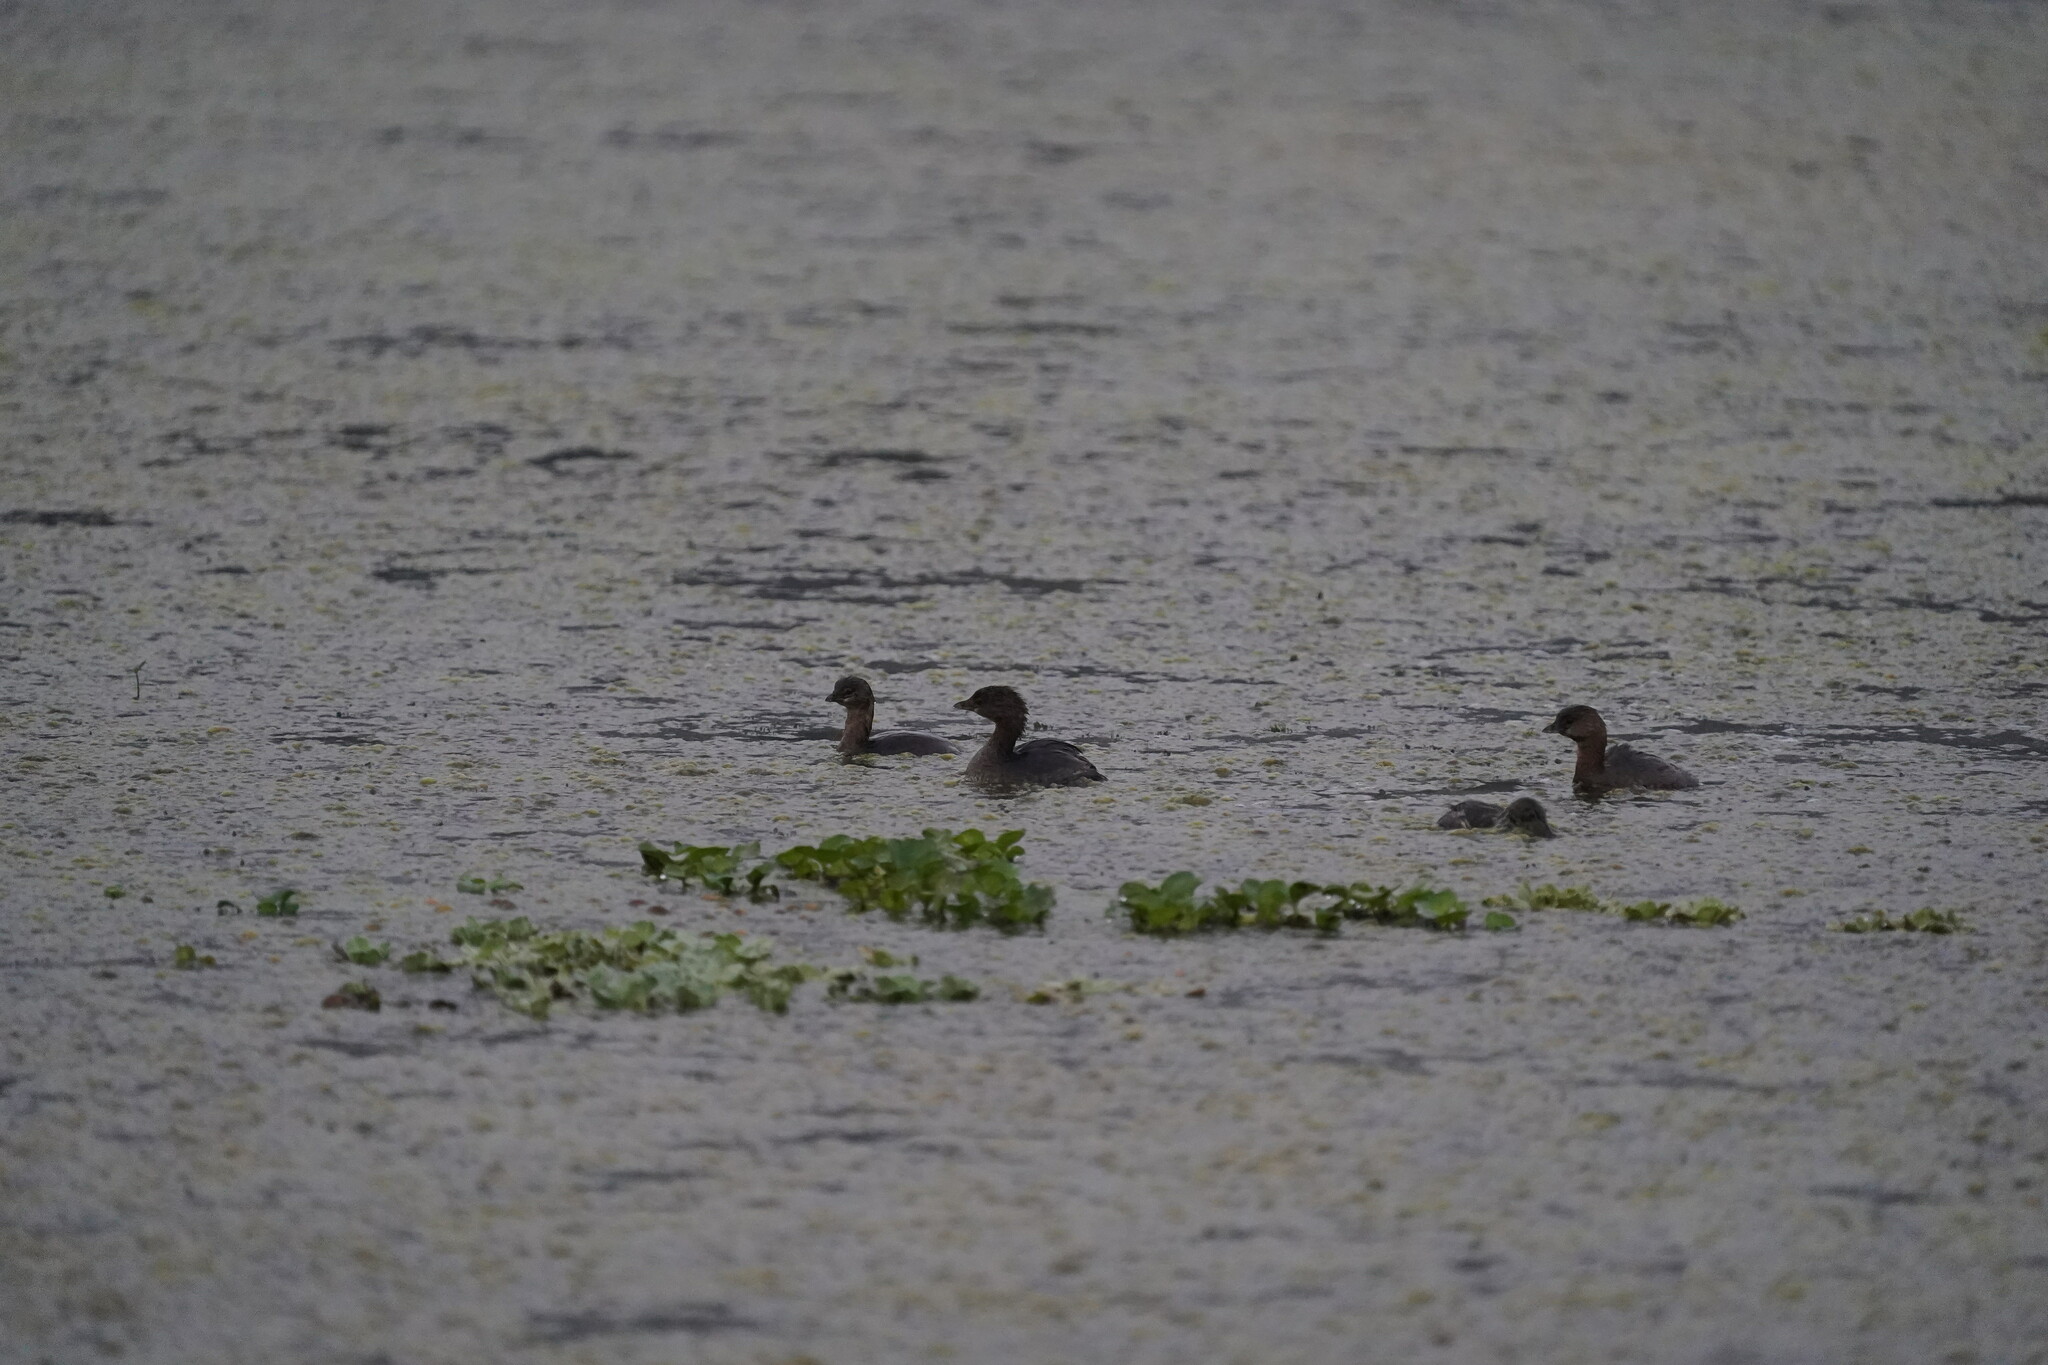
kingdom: Animalia
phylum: Chordata
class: Aves
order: Podicipediformes
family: Podicipedidae
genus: Podilymbus
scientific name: Podilymbus podiceps
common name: Pied-billed grebe
